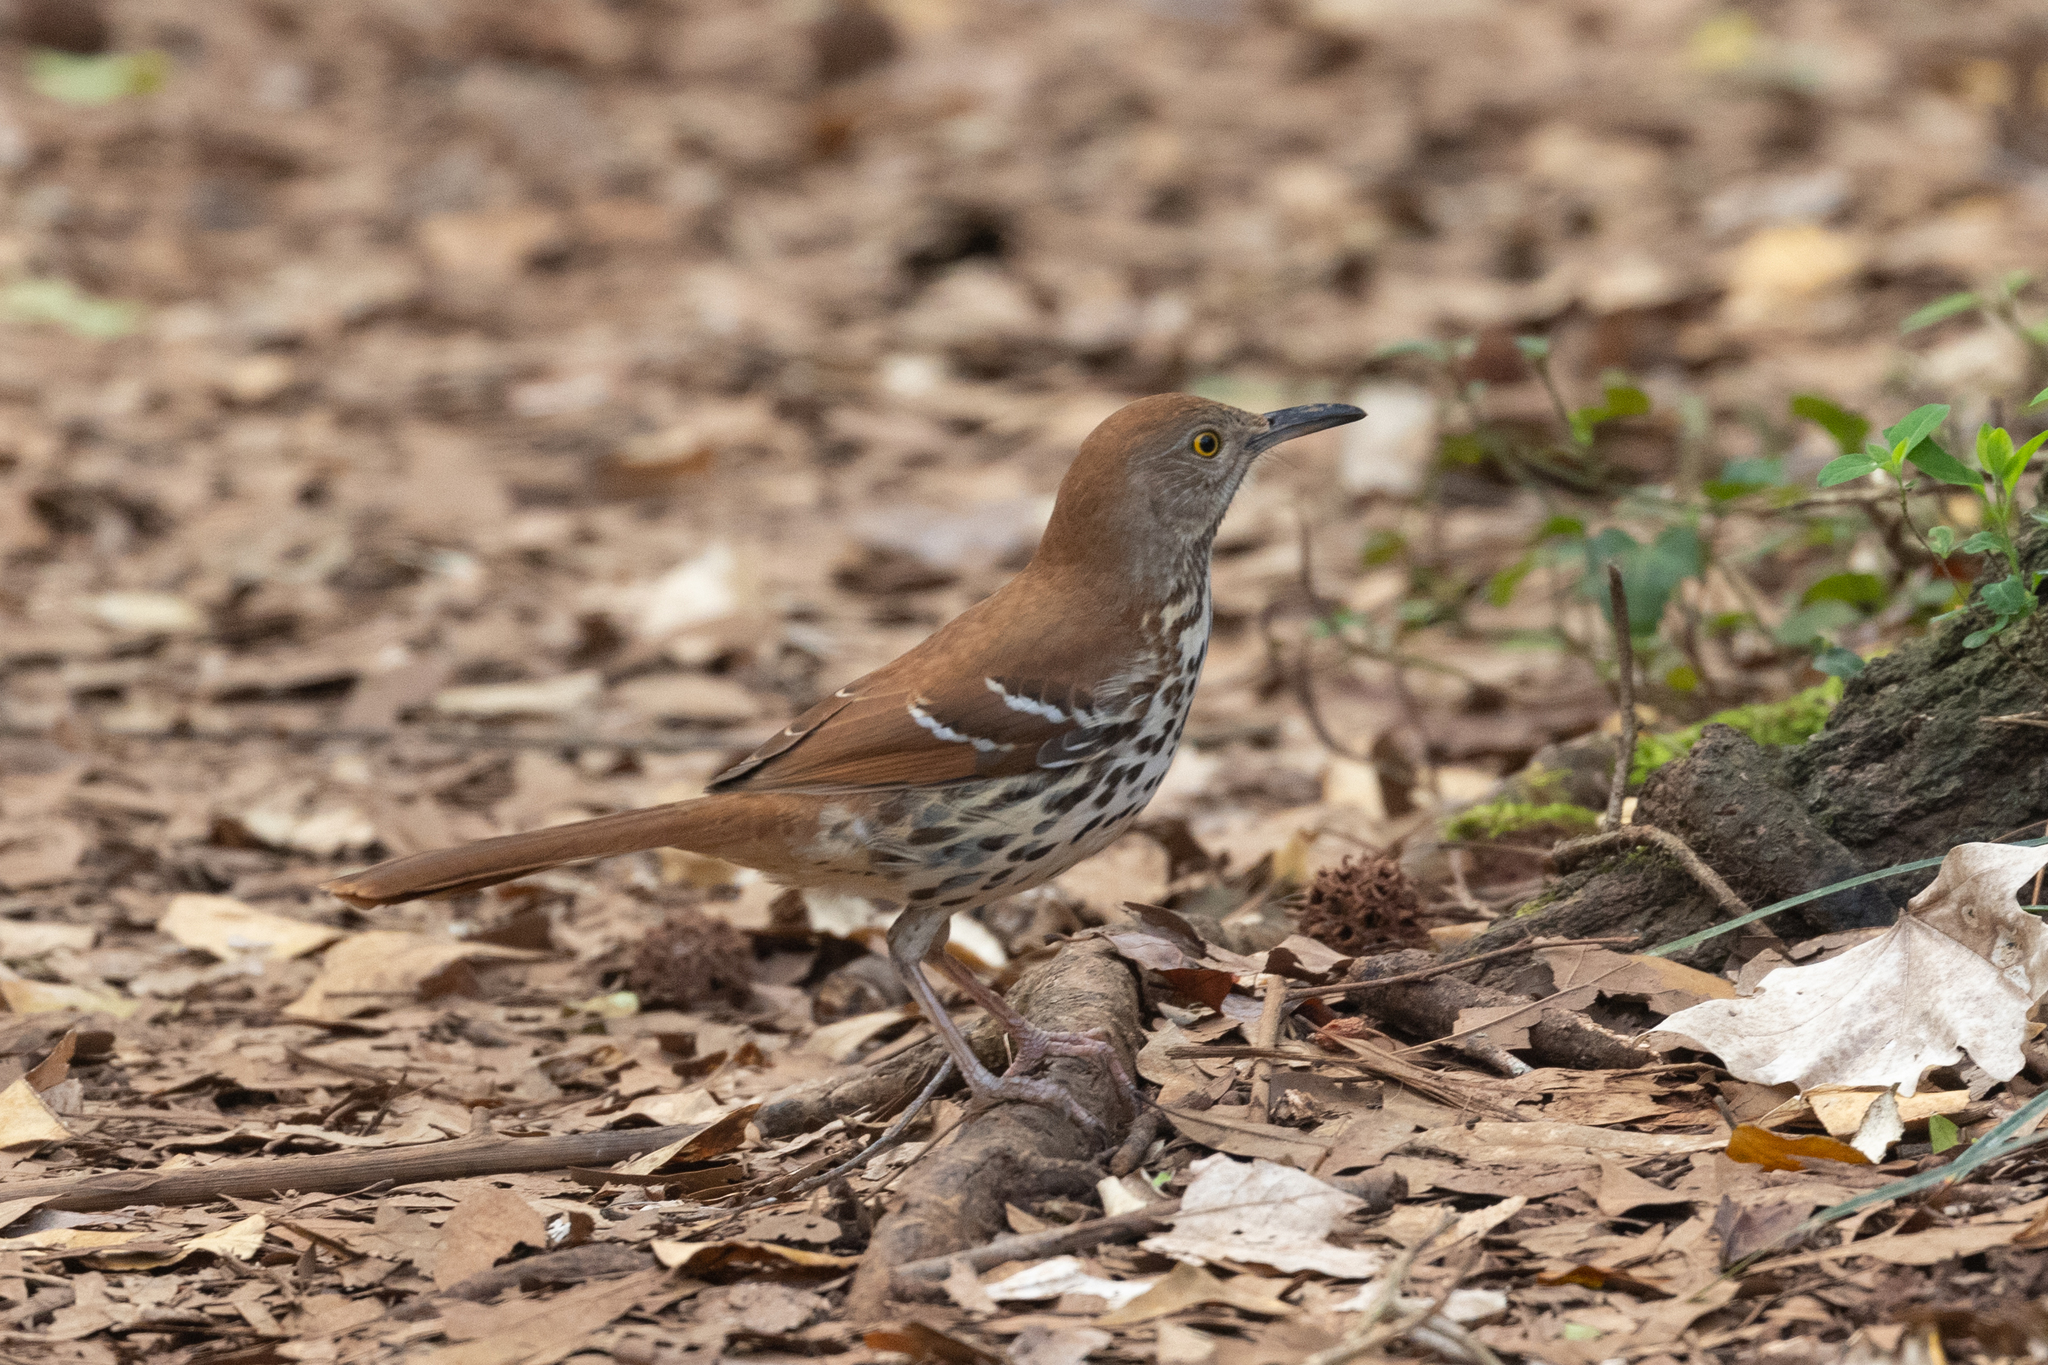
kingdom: Animalia
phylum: Chordata
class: Aves
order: Passeriformes
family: Mimidae
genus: Toxostoma
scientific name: Toxostoma rufum
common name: Brown thrasher
